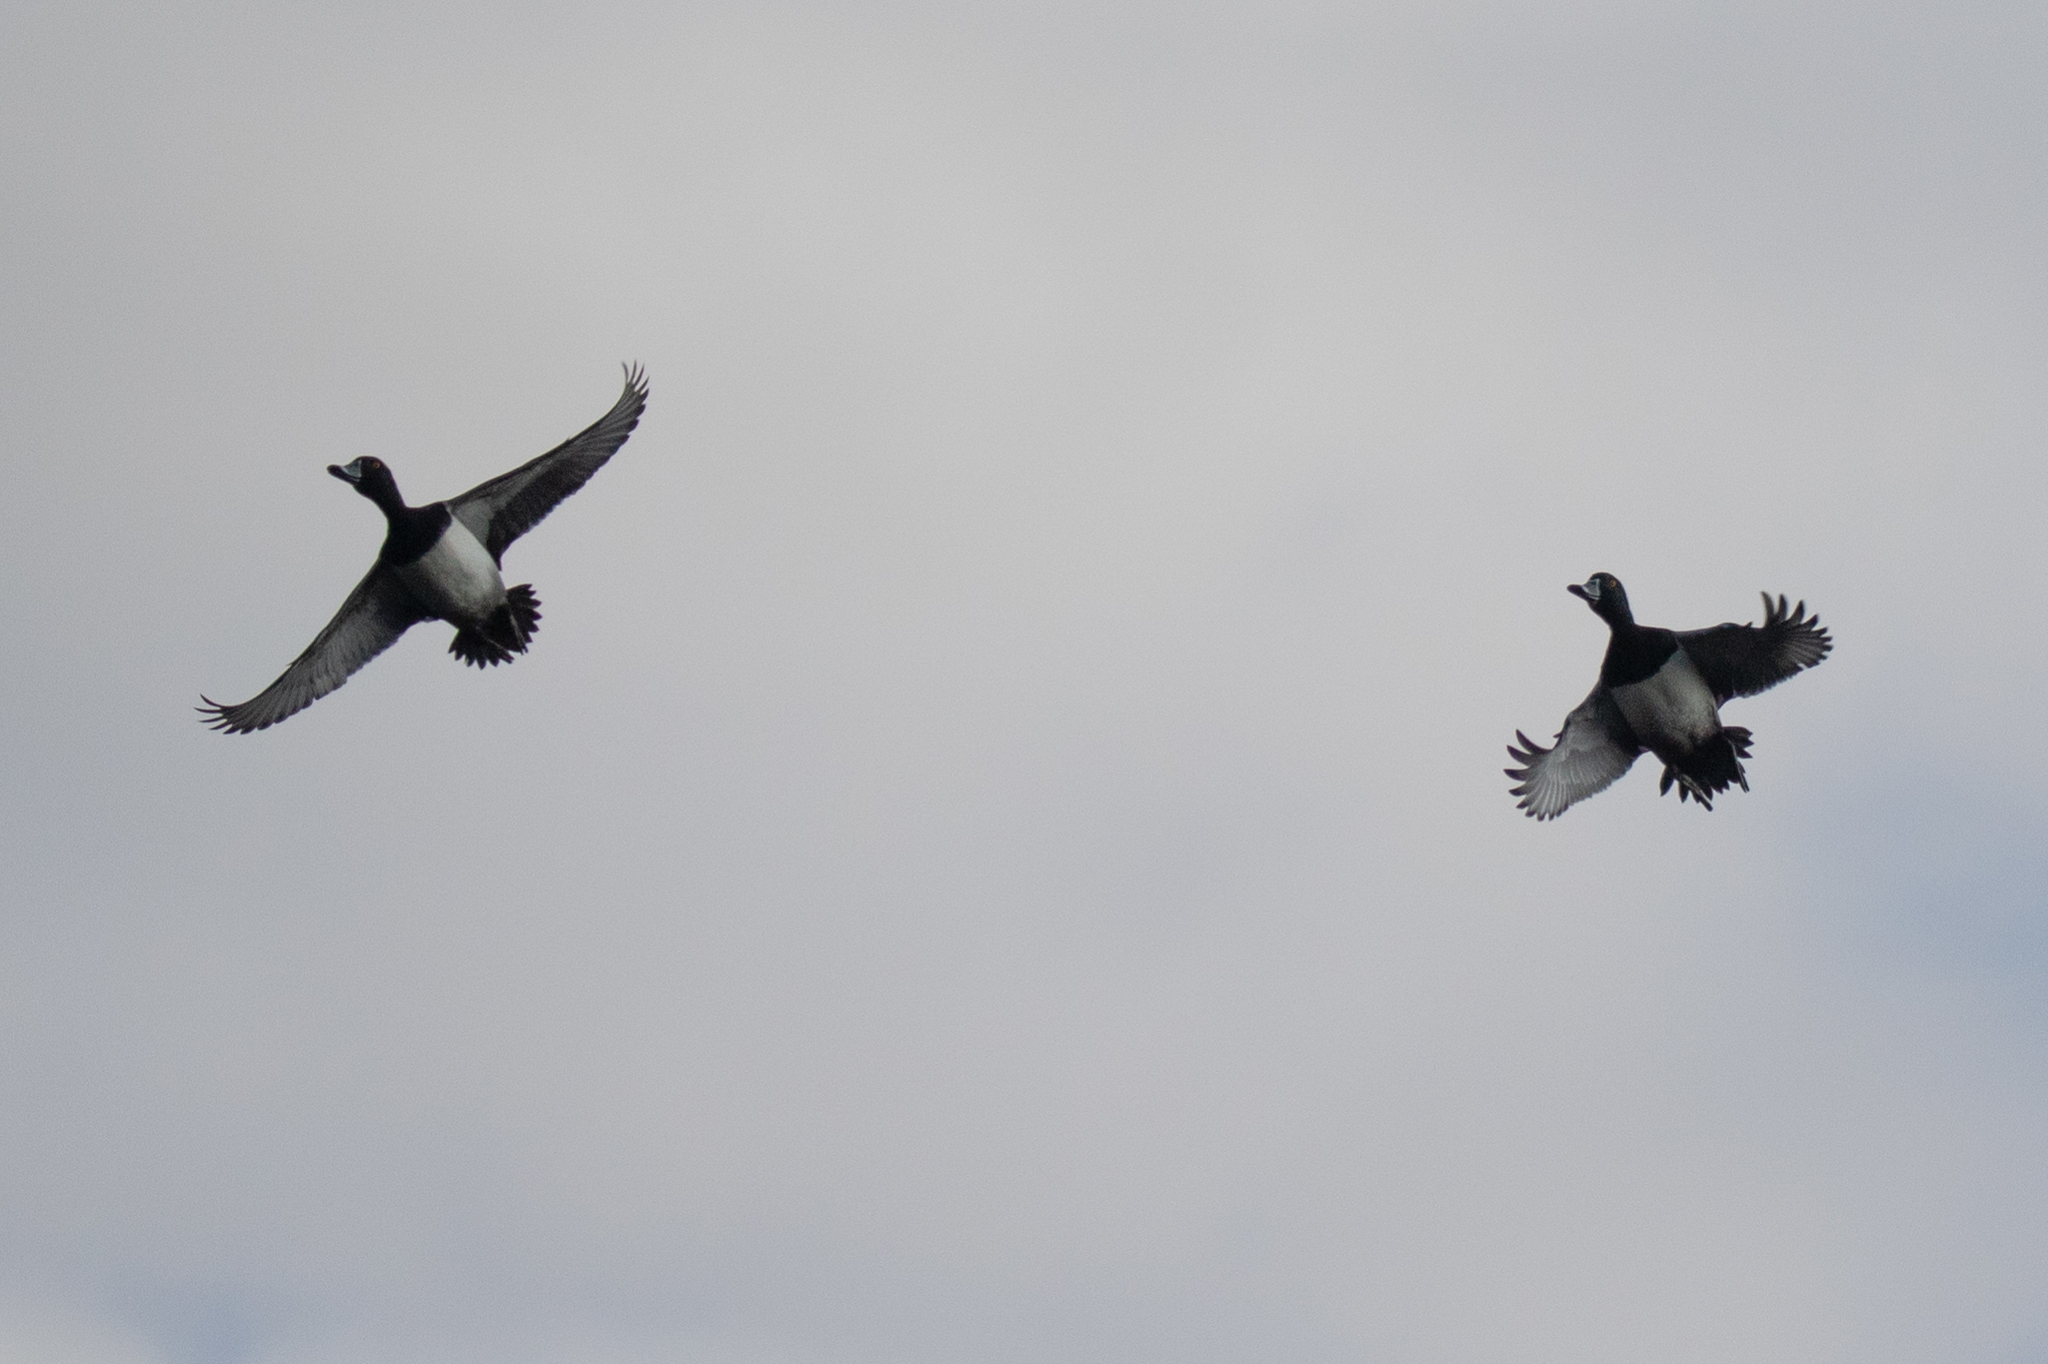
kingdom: Animalia
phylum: Chordata
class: Aves
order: Anseriformes
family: Anatidae
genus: Aythya
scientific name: Aythya collaris
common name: Ring-necked duck
